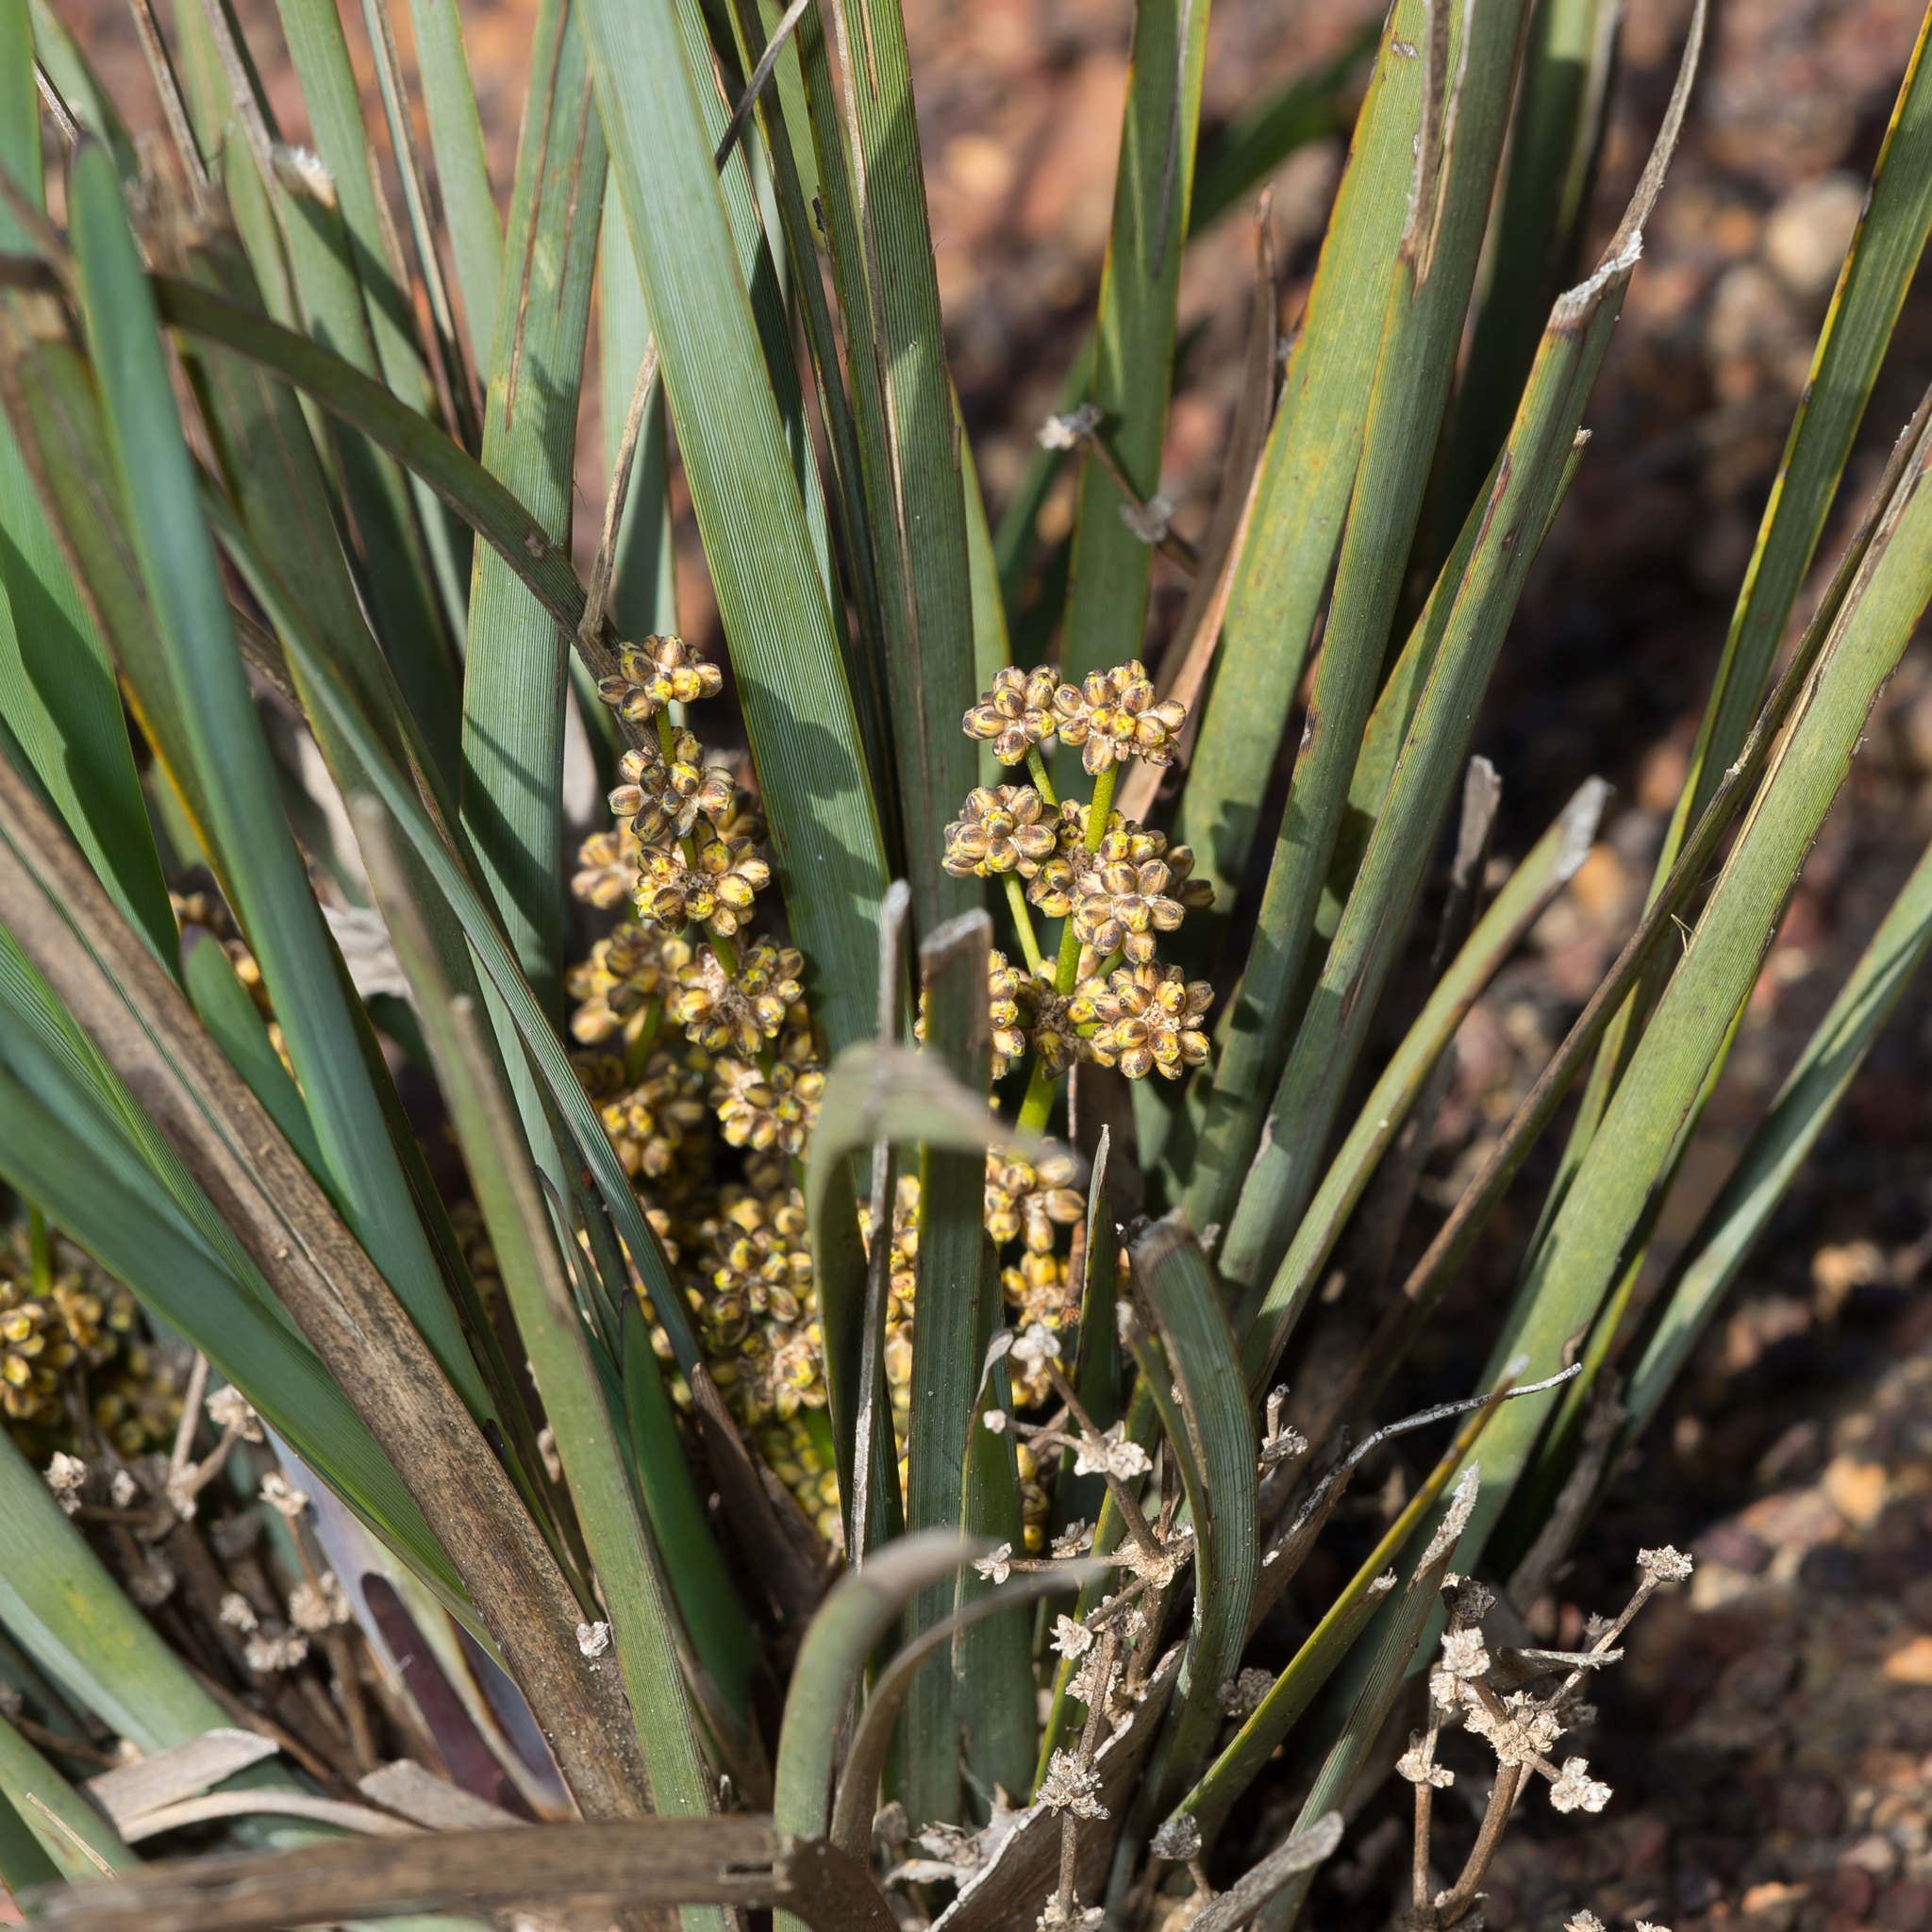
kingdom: Plantae
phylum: Tracheophyta
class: Liliopsida
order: Asparagales
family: Asparagaceae
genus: Lomandra
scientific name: Lomandra multiflora
